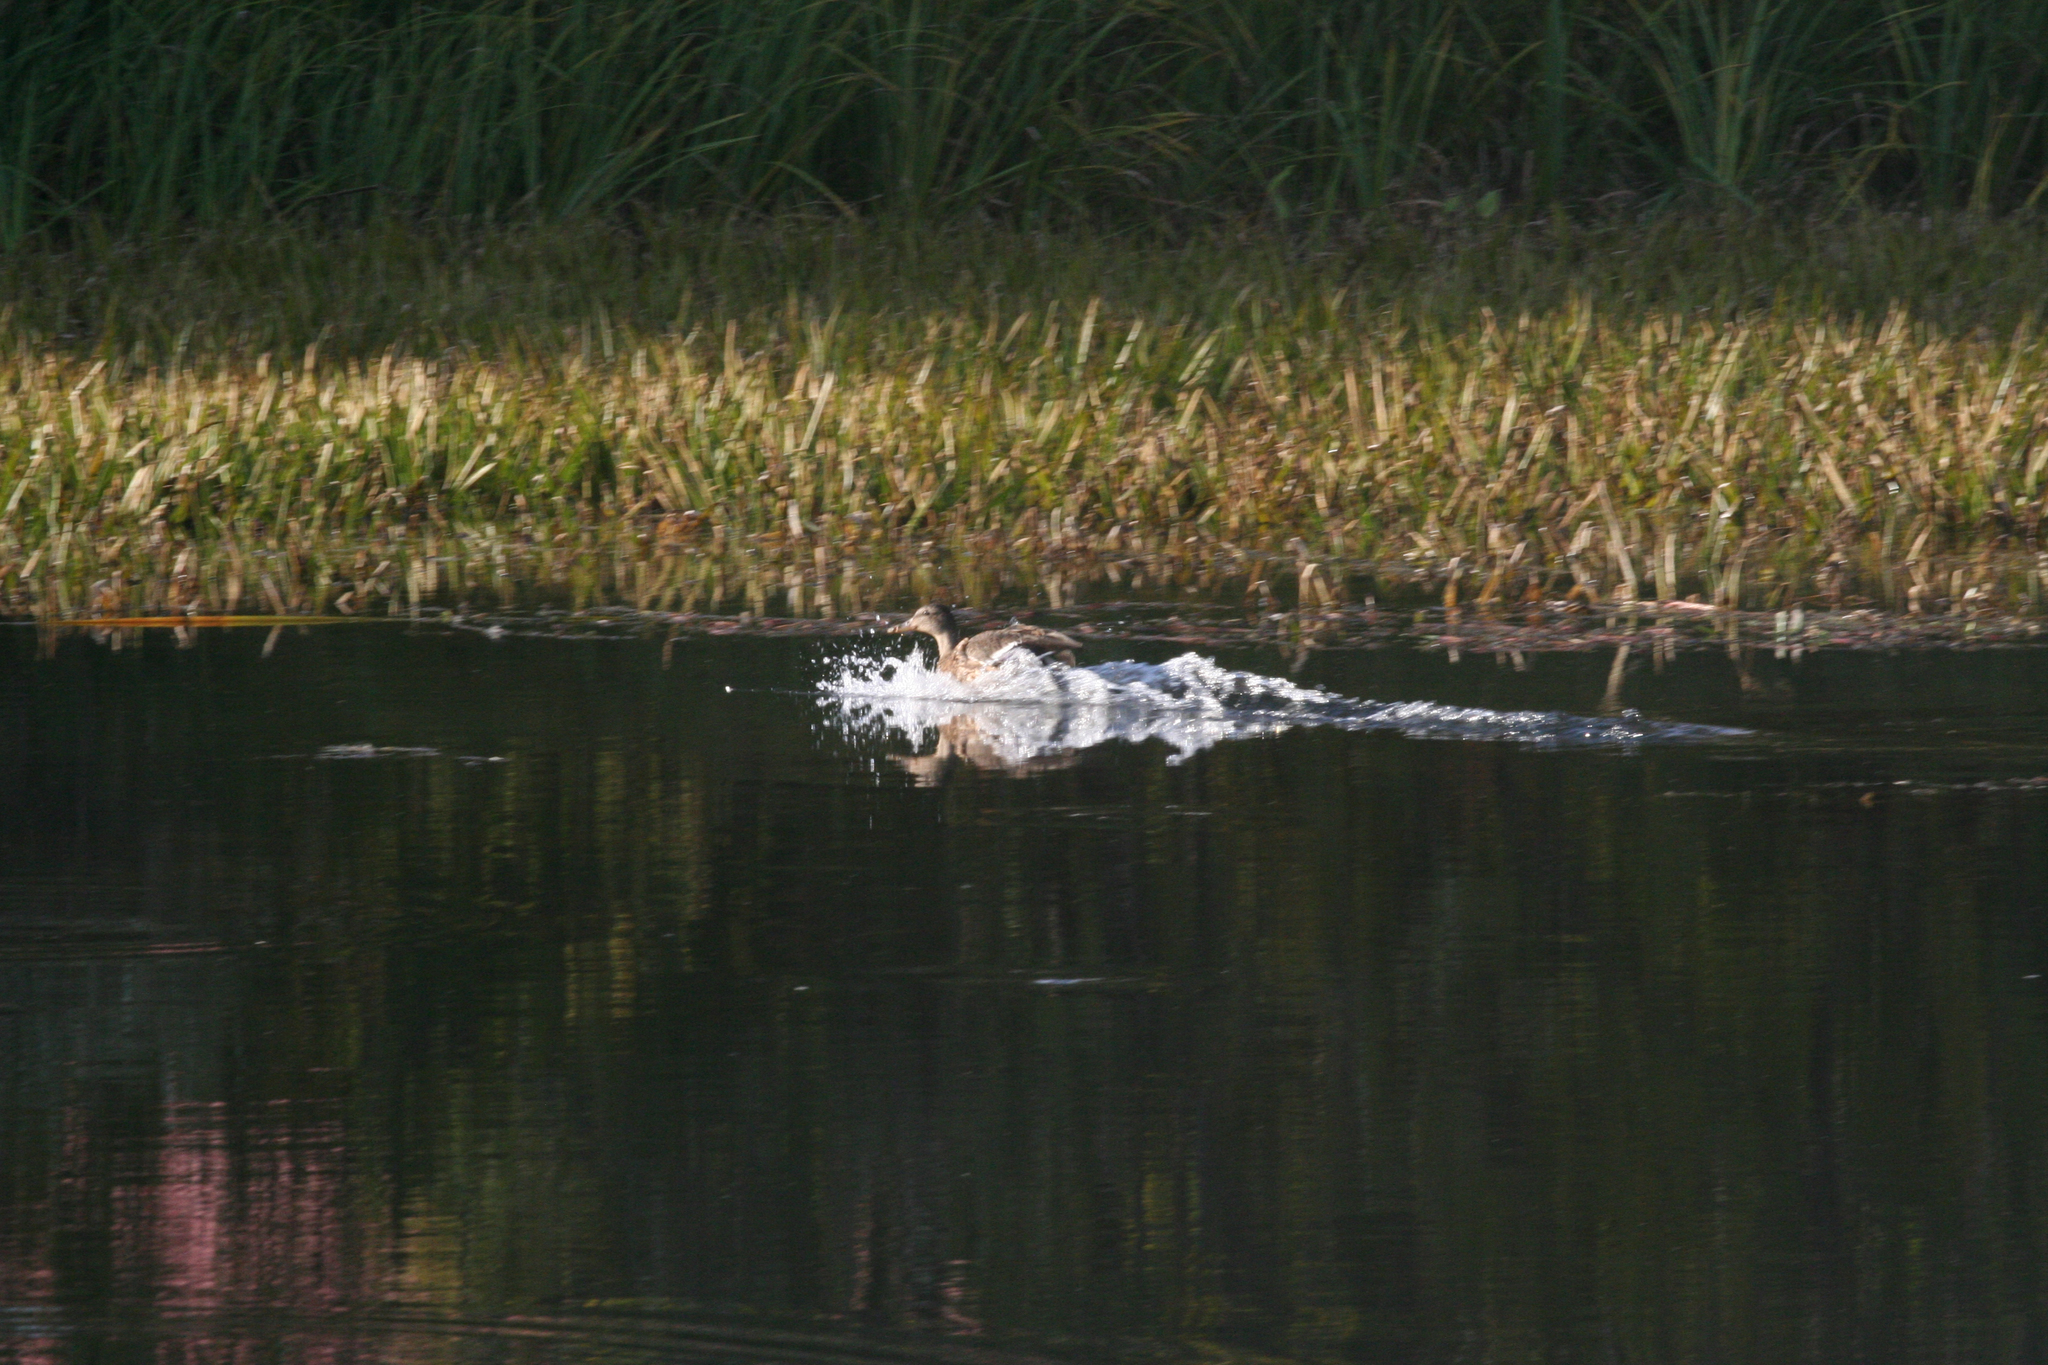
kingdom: Animalia
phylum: Chordata
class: Aves
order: Anseriformes
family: Anatidae
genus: Anas
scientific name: Anas platyrhynchos
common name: Mallard
